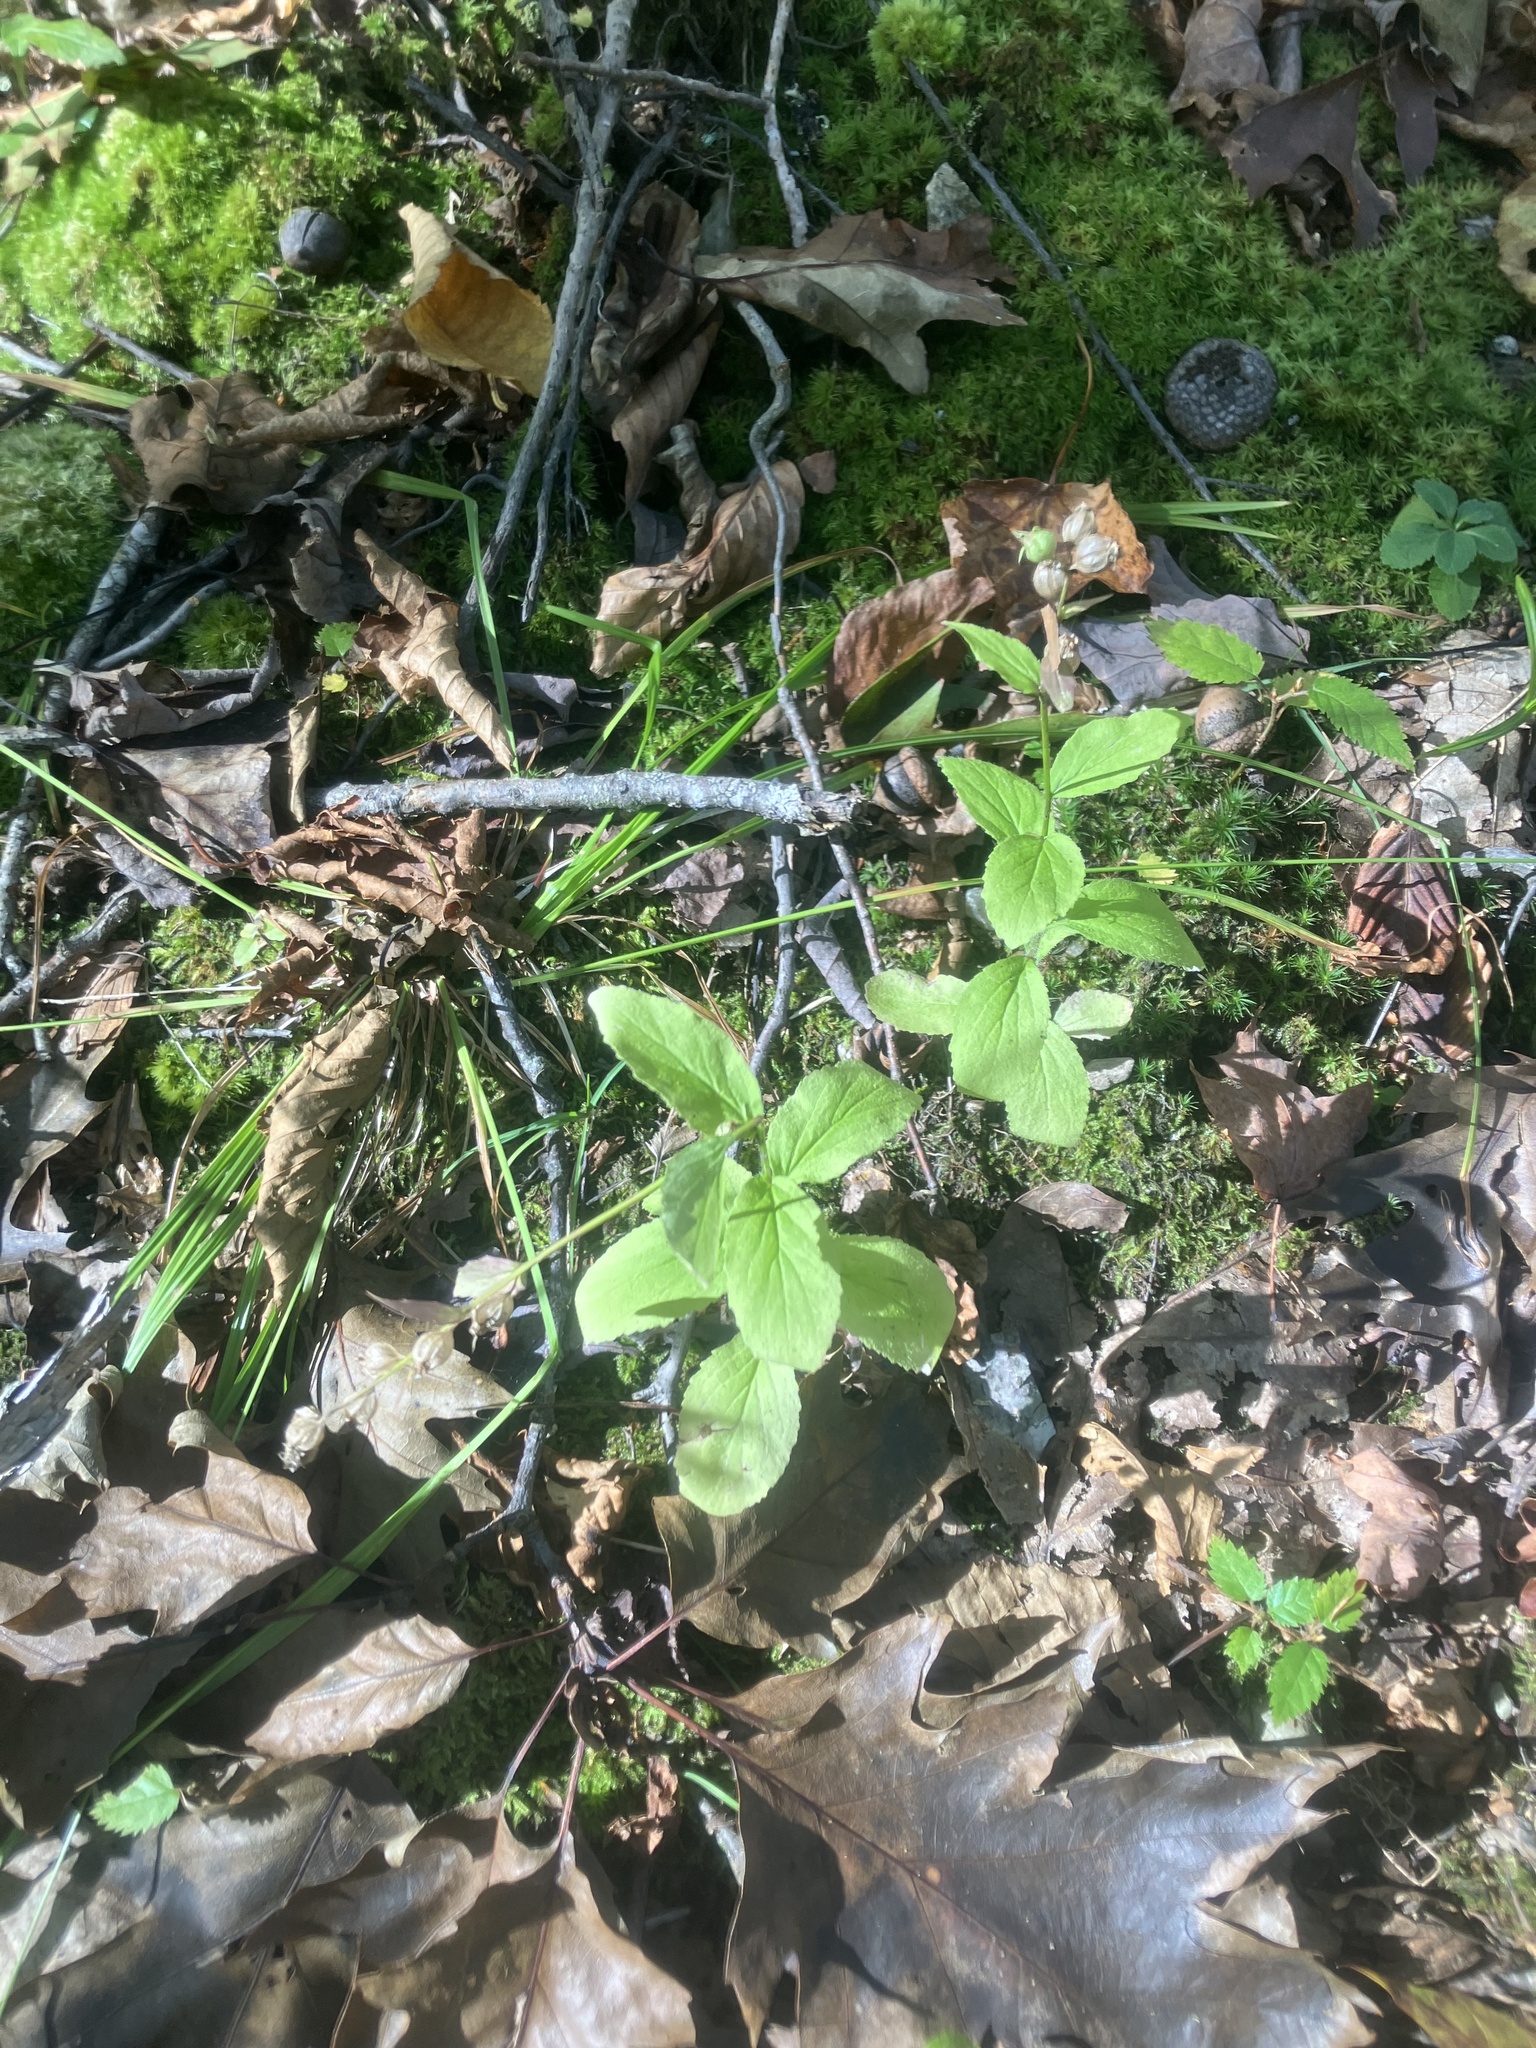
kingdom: Plantae
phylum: Tracheophyta
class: Magnoliopsida
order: Asterales
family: Campanulaceae
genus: Lobelia
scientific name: Lobelia inflata
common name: Indian tobacco
